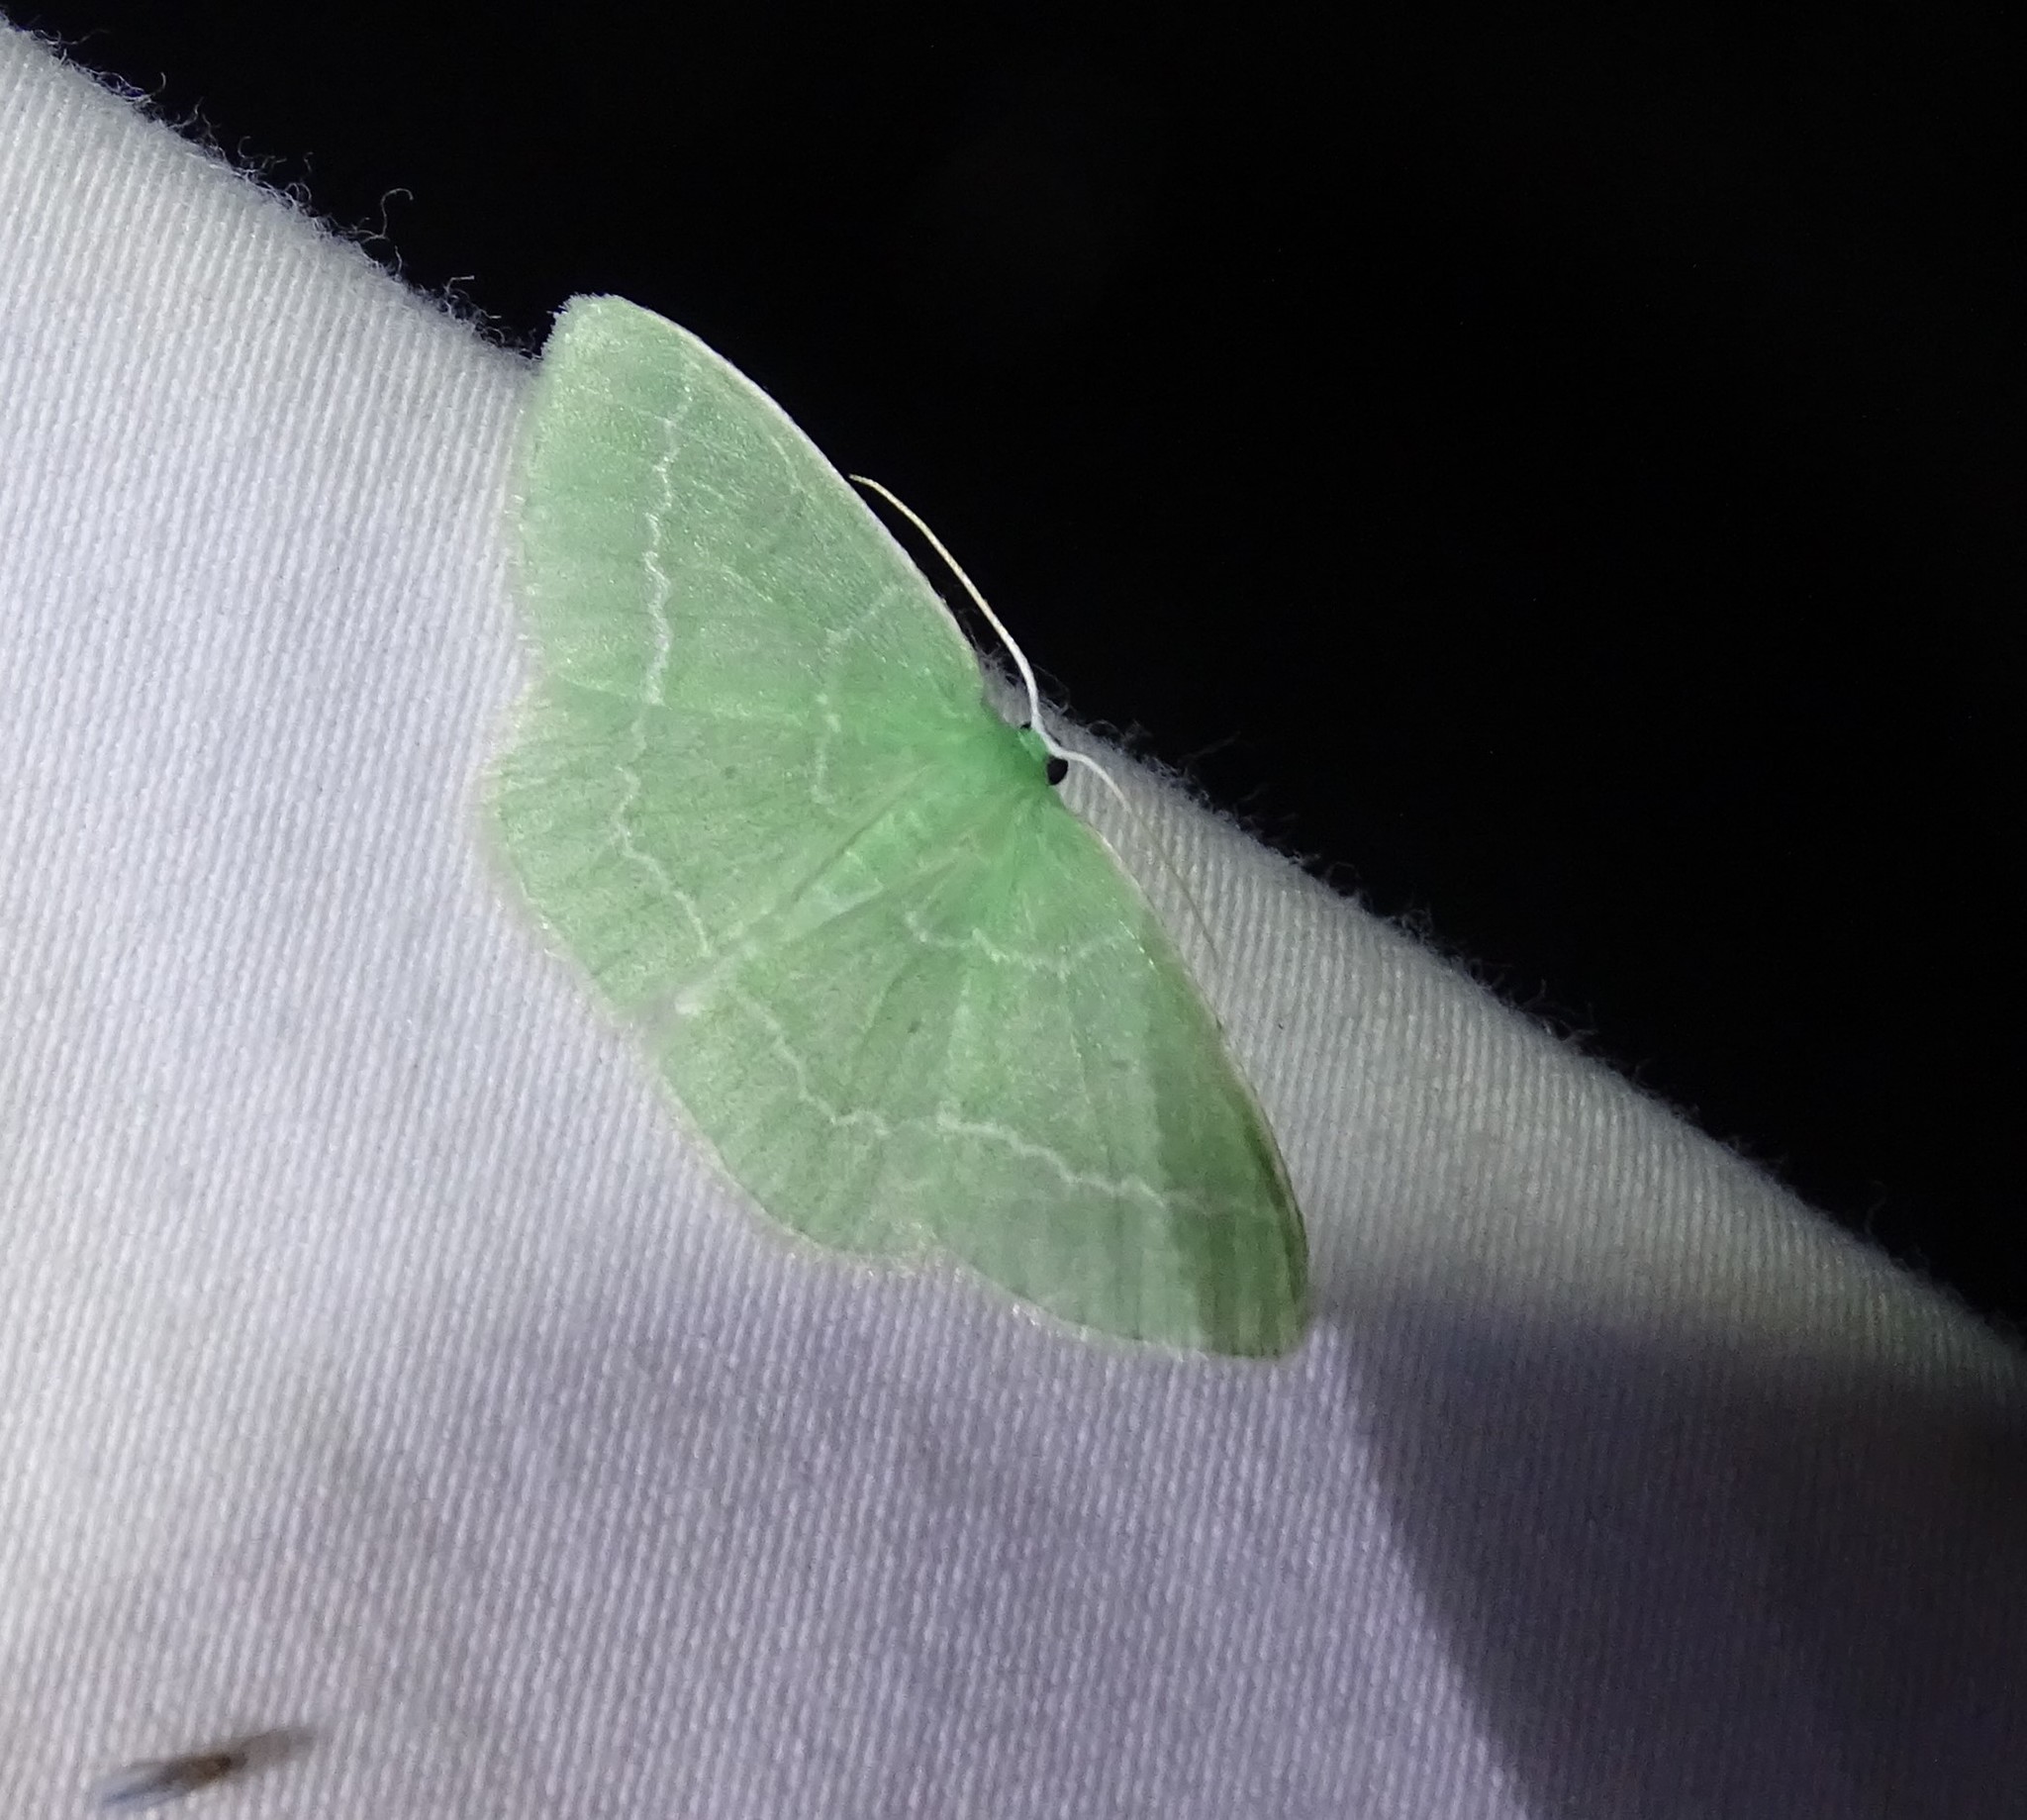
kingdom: Animalia
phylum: Arthropoda
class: Insecta
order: Lepidoptera
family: Geometridae
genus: Nemoria
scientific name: Nemoria elfa
